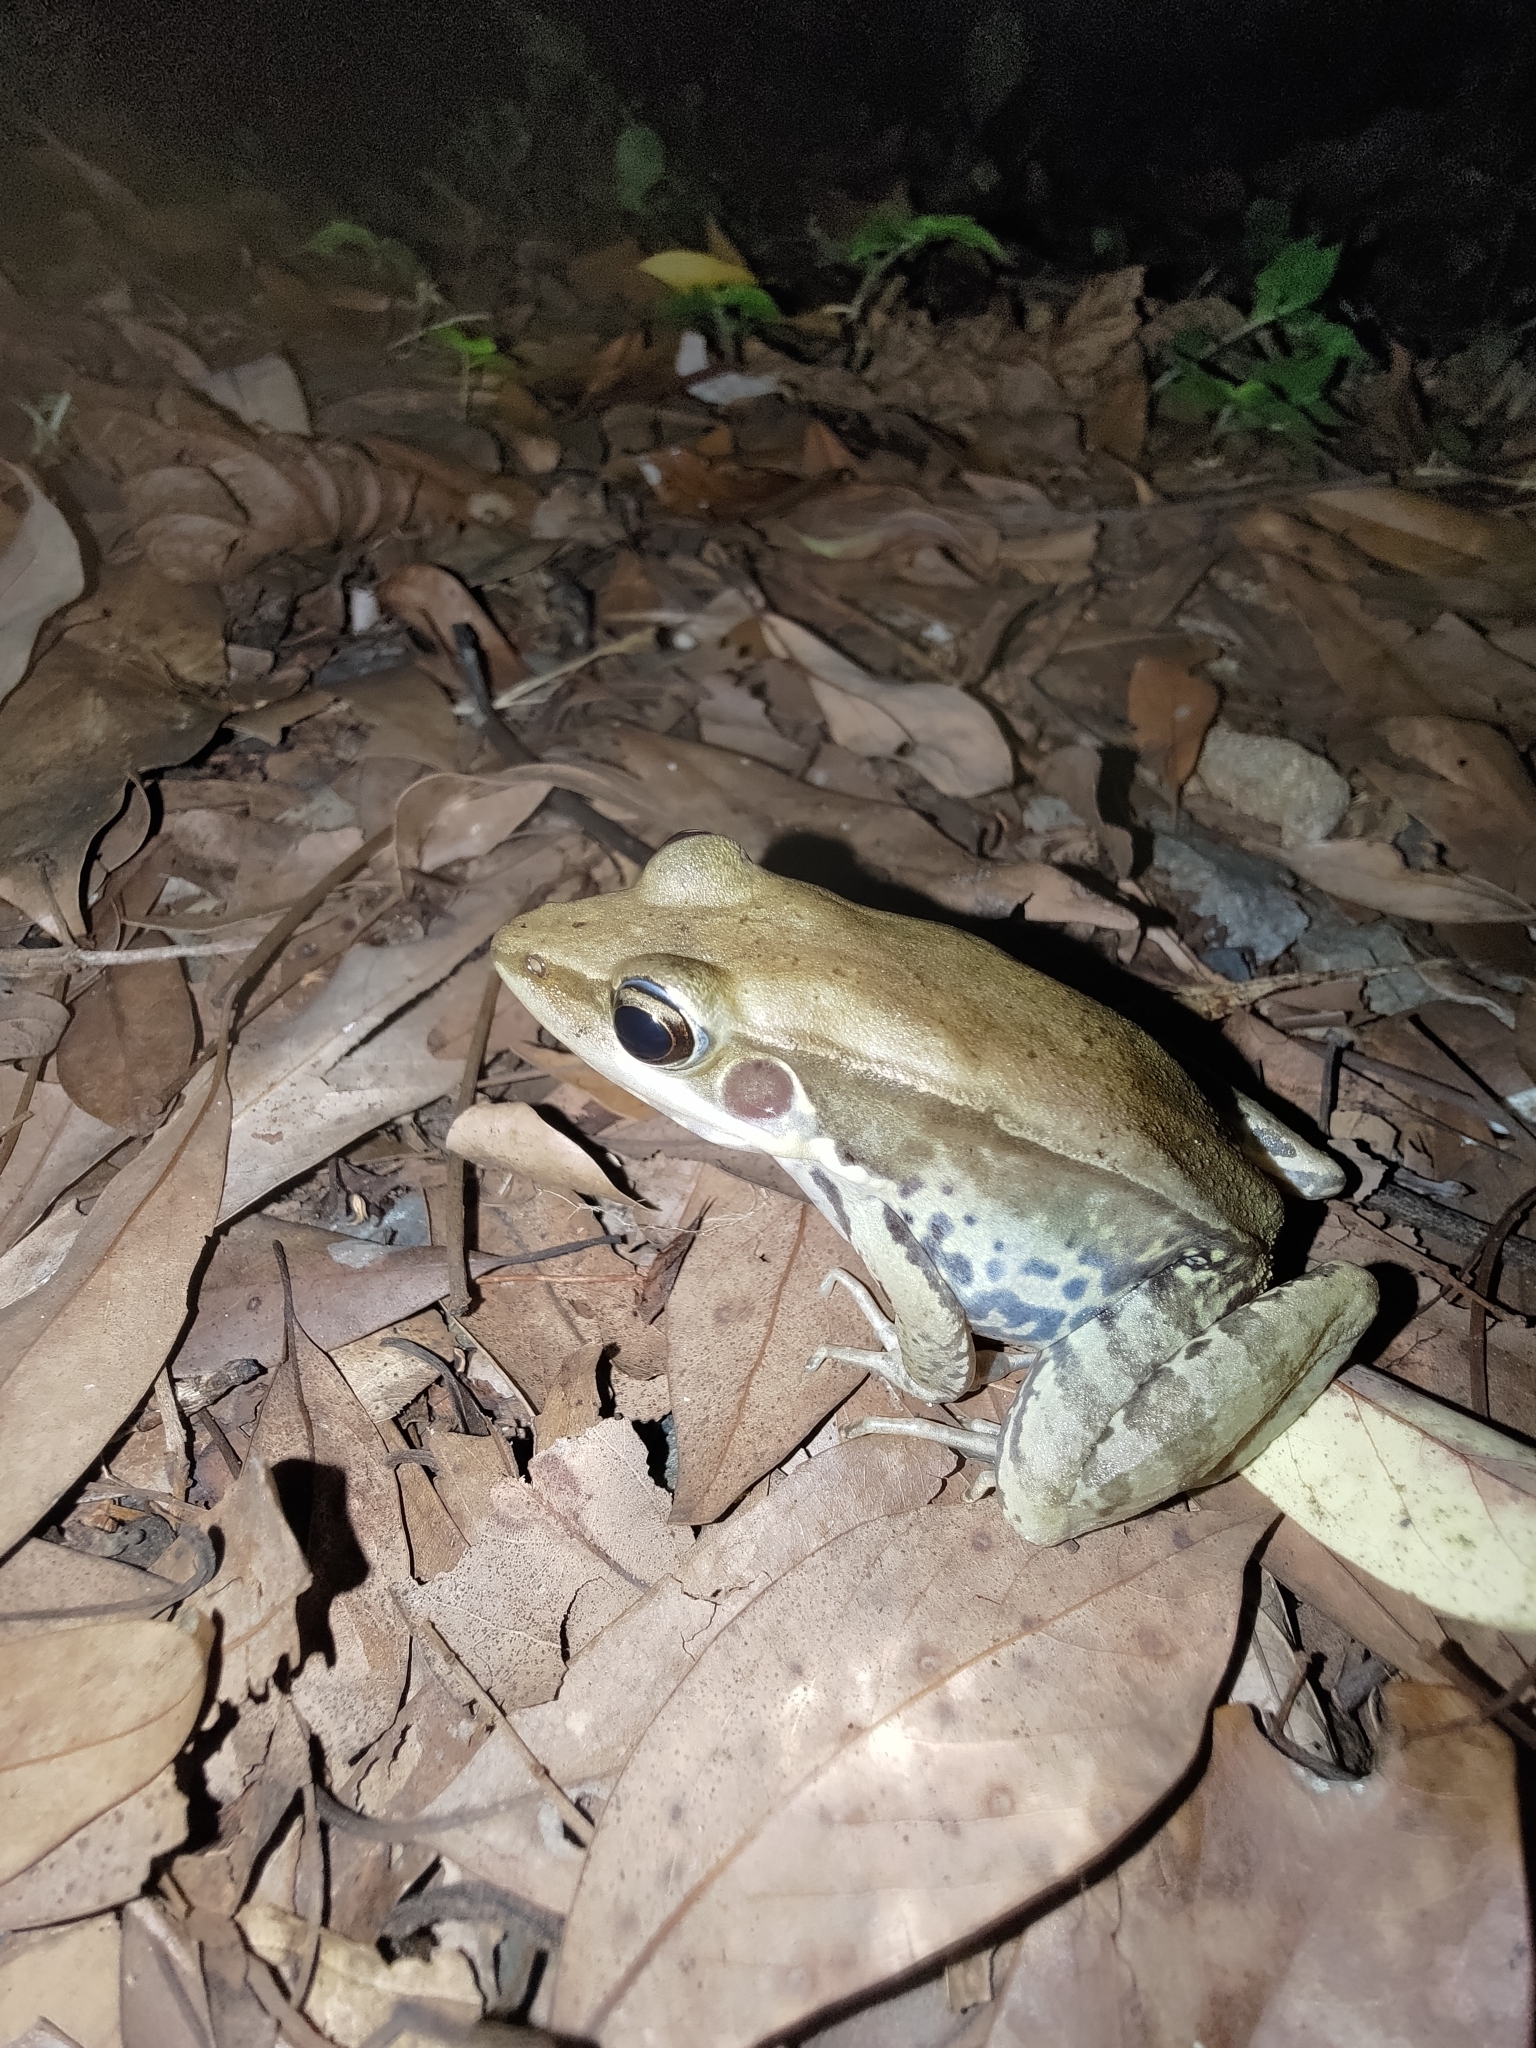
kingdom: Animalia
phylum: Chordata
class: Amphibia
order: Anura
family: Ranidae
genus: Sylvirana
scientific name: Sylvirana guentheri
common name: Guenther's amoy frog
